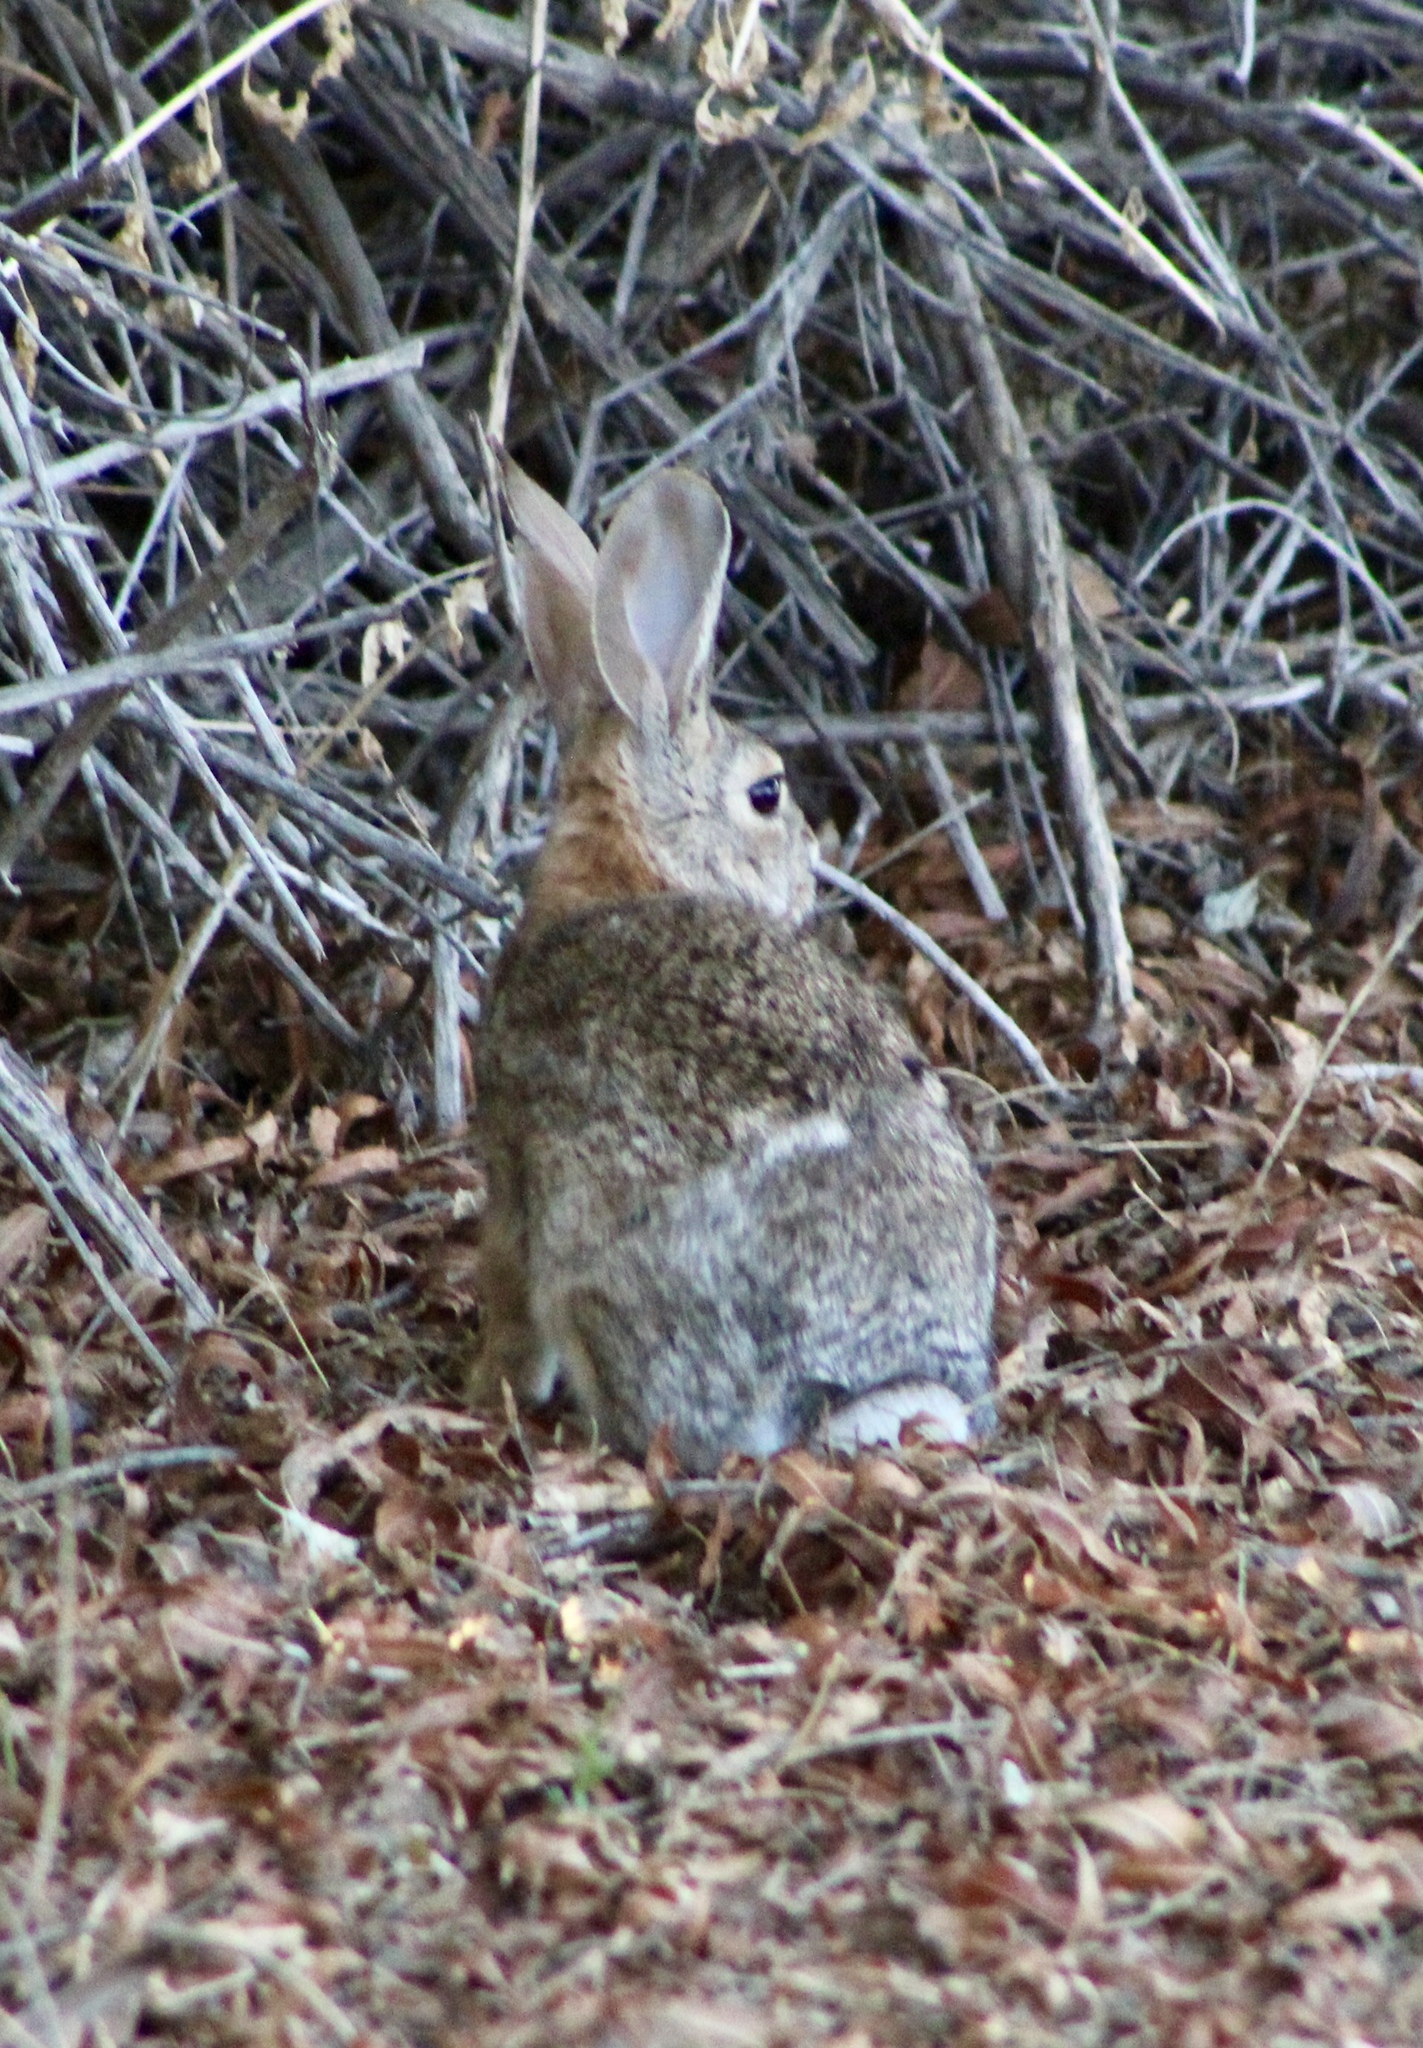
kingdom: Animalia
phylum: Chordata
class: Mammalia
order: Lagomorpha
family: Leporidae
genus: Sylvilagus
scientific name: Sylvilagus audubonii
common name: Desert cottontail
